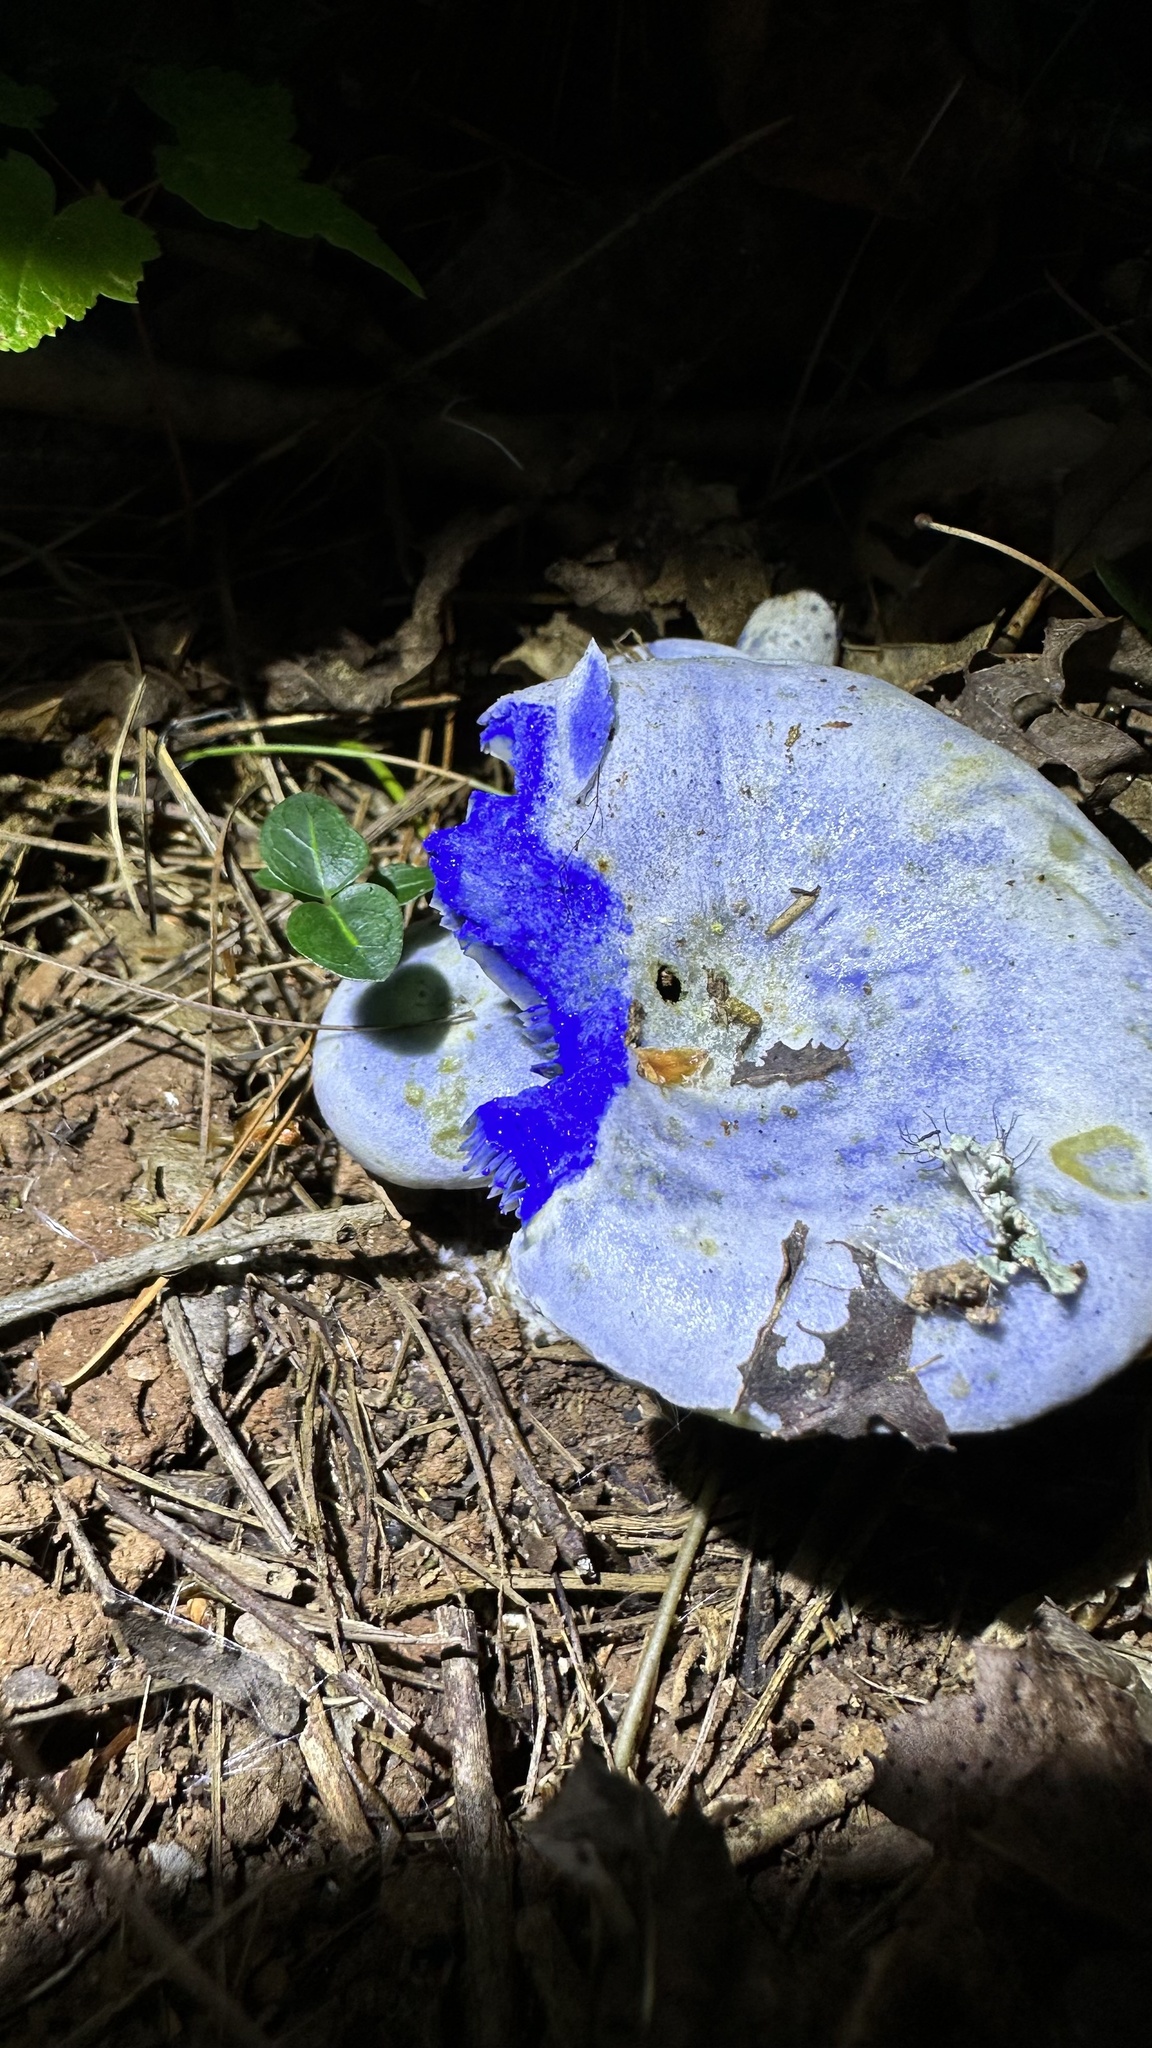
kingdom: Fungi
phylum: Basidiomycota
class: Agaricomycetes
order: Russulales
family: Russulaceae
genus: Lactarius
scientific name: Lactarius indigo
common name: Indigo milk cap
